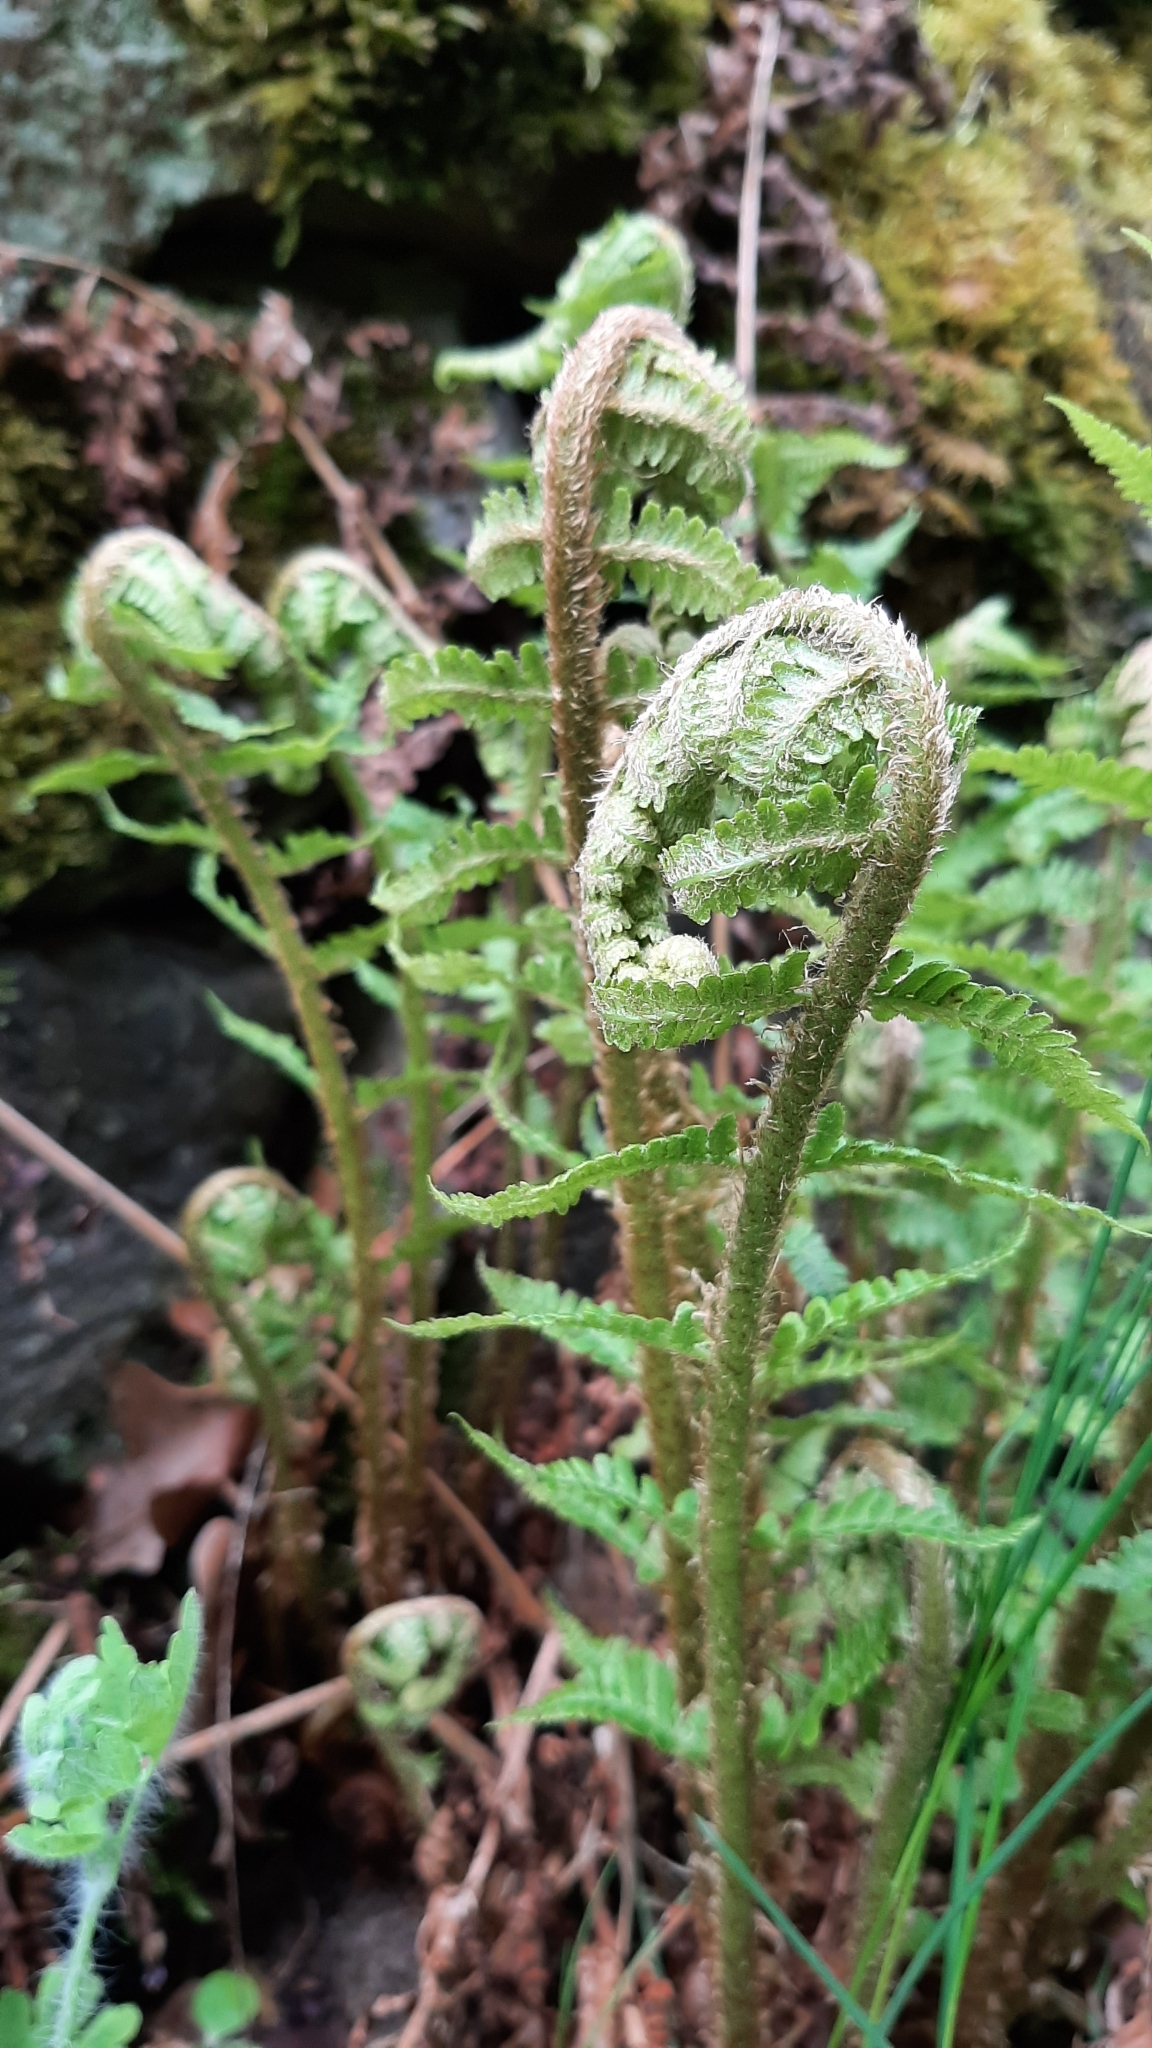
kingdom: Plantae
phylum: Tracheophyta
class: Polypodiopsida
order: Polypodiales
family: Dryopteridaceae
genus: Dryopteris
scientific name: Dryopteris filix-mas
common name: Male fern
